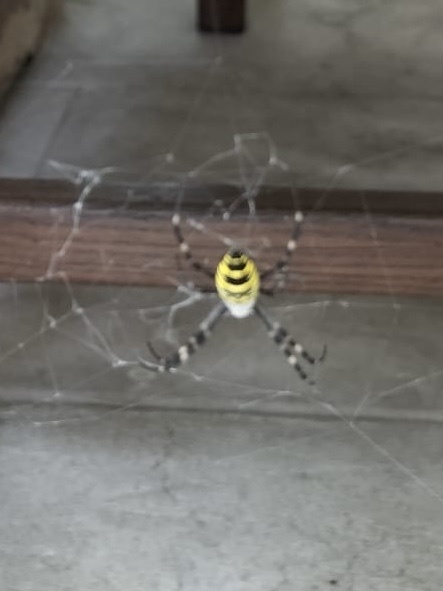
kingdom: Animalia
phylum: Arthropoda
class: Arachnida
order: Araneae
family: Araneidae
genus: Argiope
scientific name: Argiope bruennichi
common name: Wasp spider
